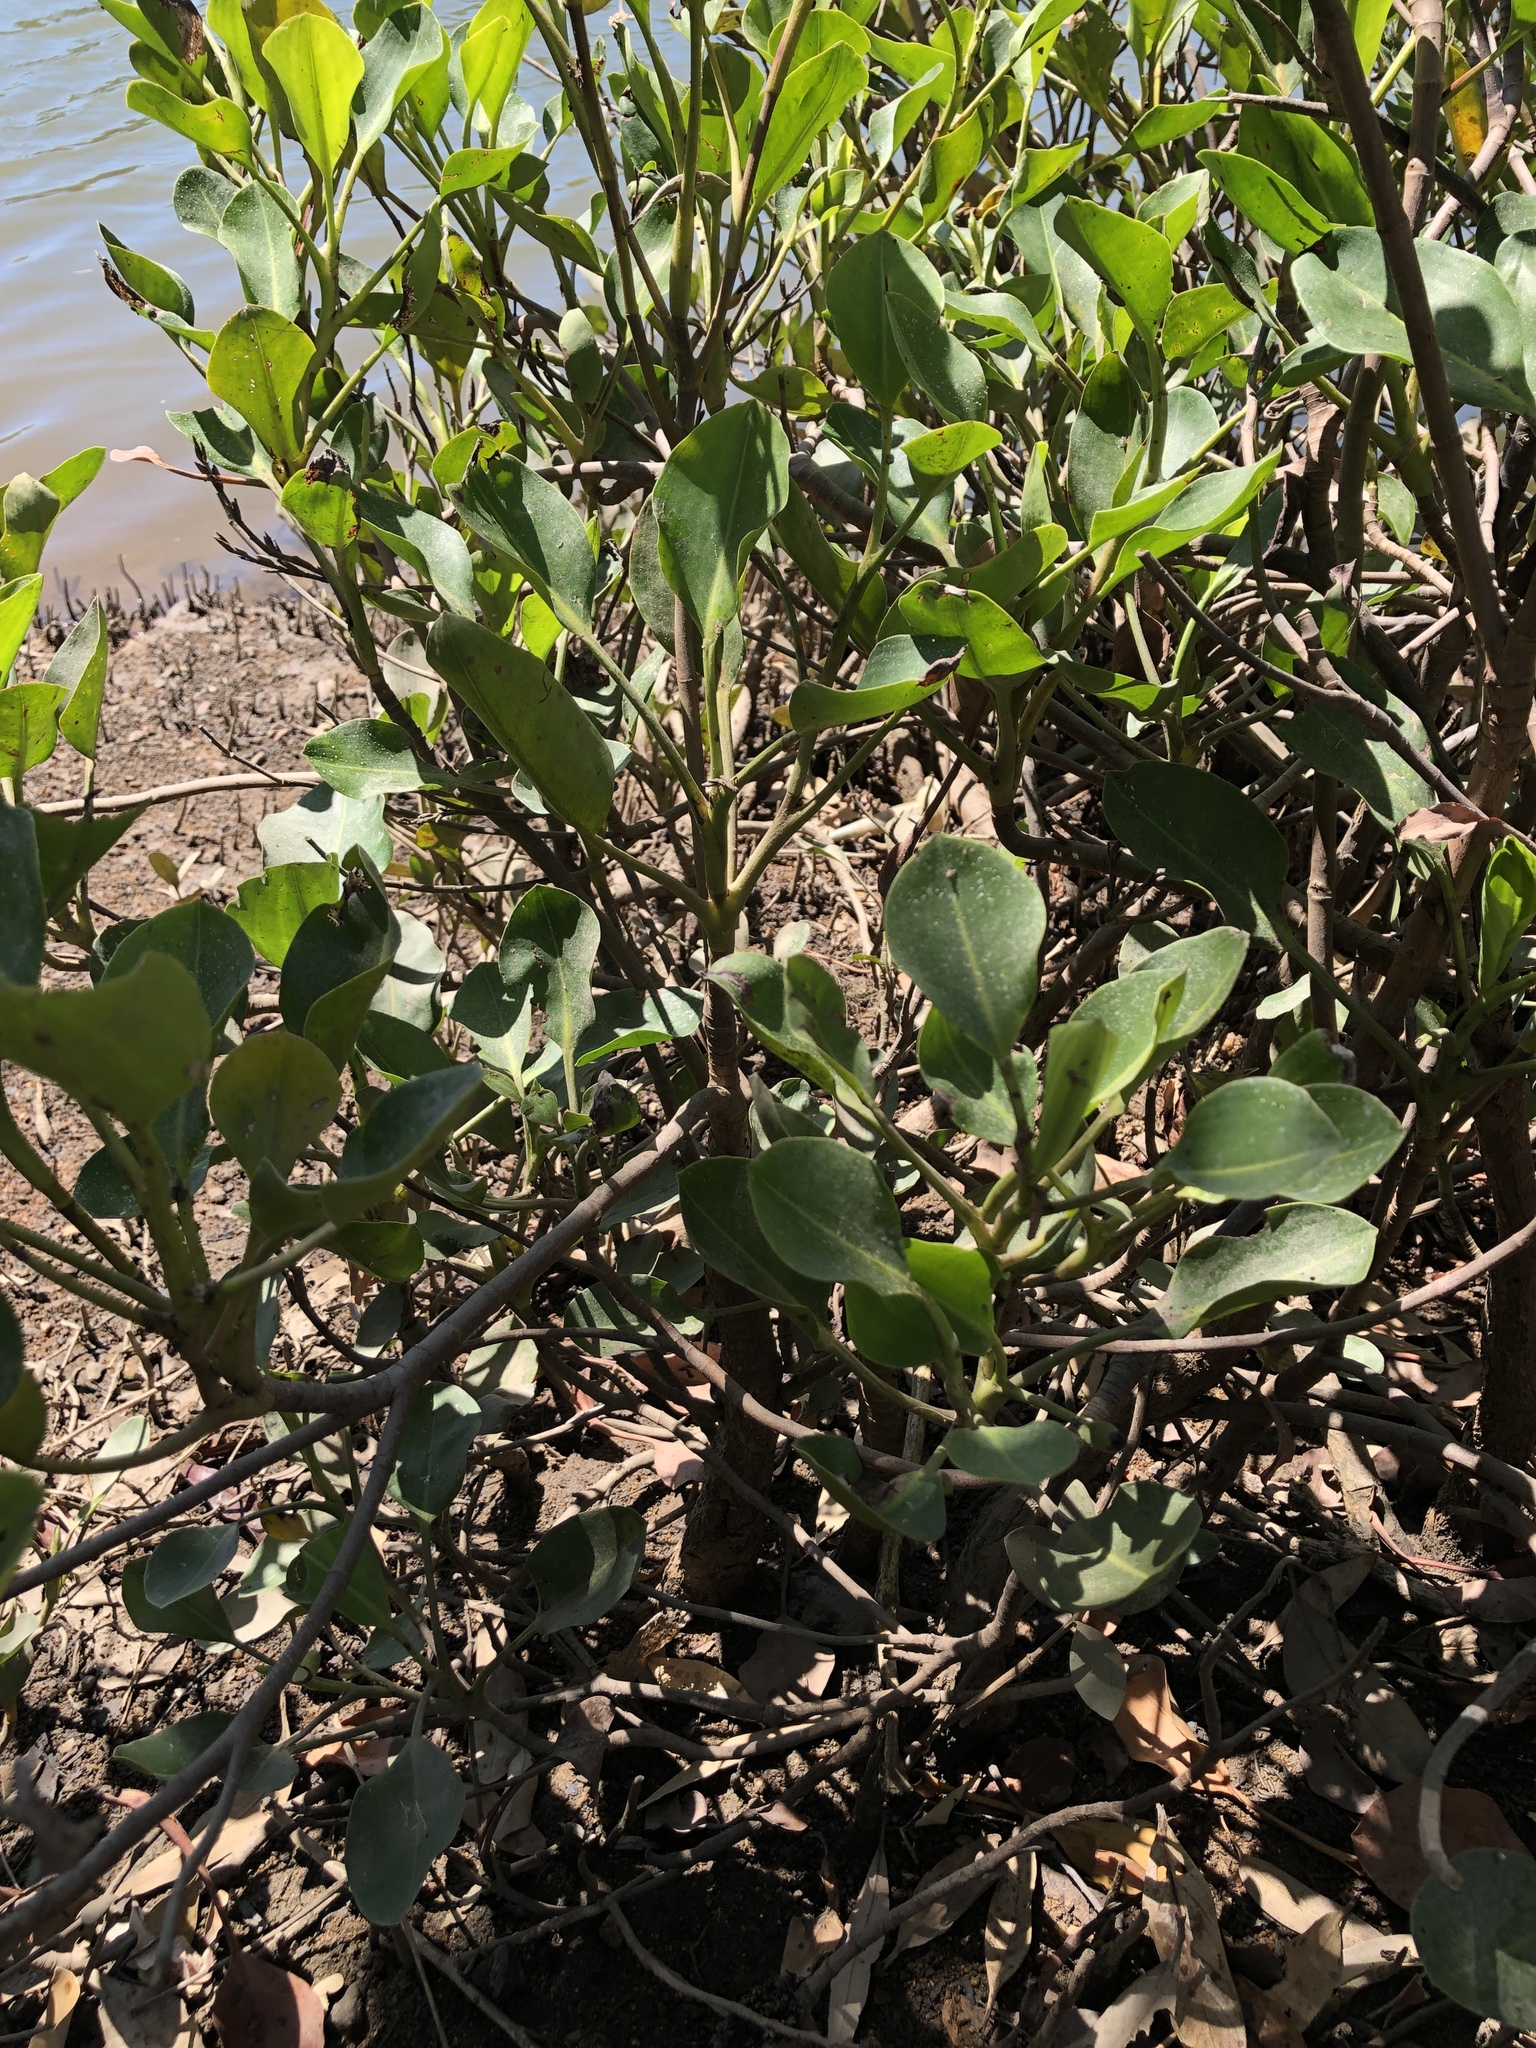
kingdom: Plantae
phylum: Tracheophyta
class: Magnoliopsida
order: Caryophyllales
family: Plumbaginaceae
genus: Aegialitis
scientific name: Aegialitis annulata
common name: Club mangrove
